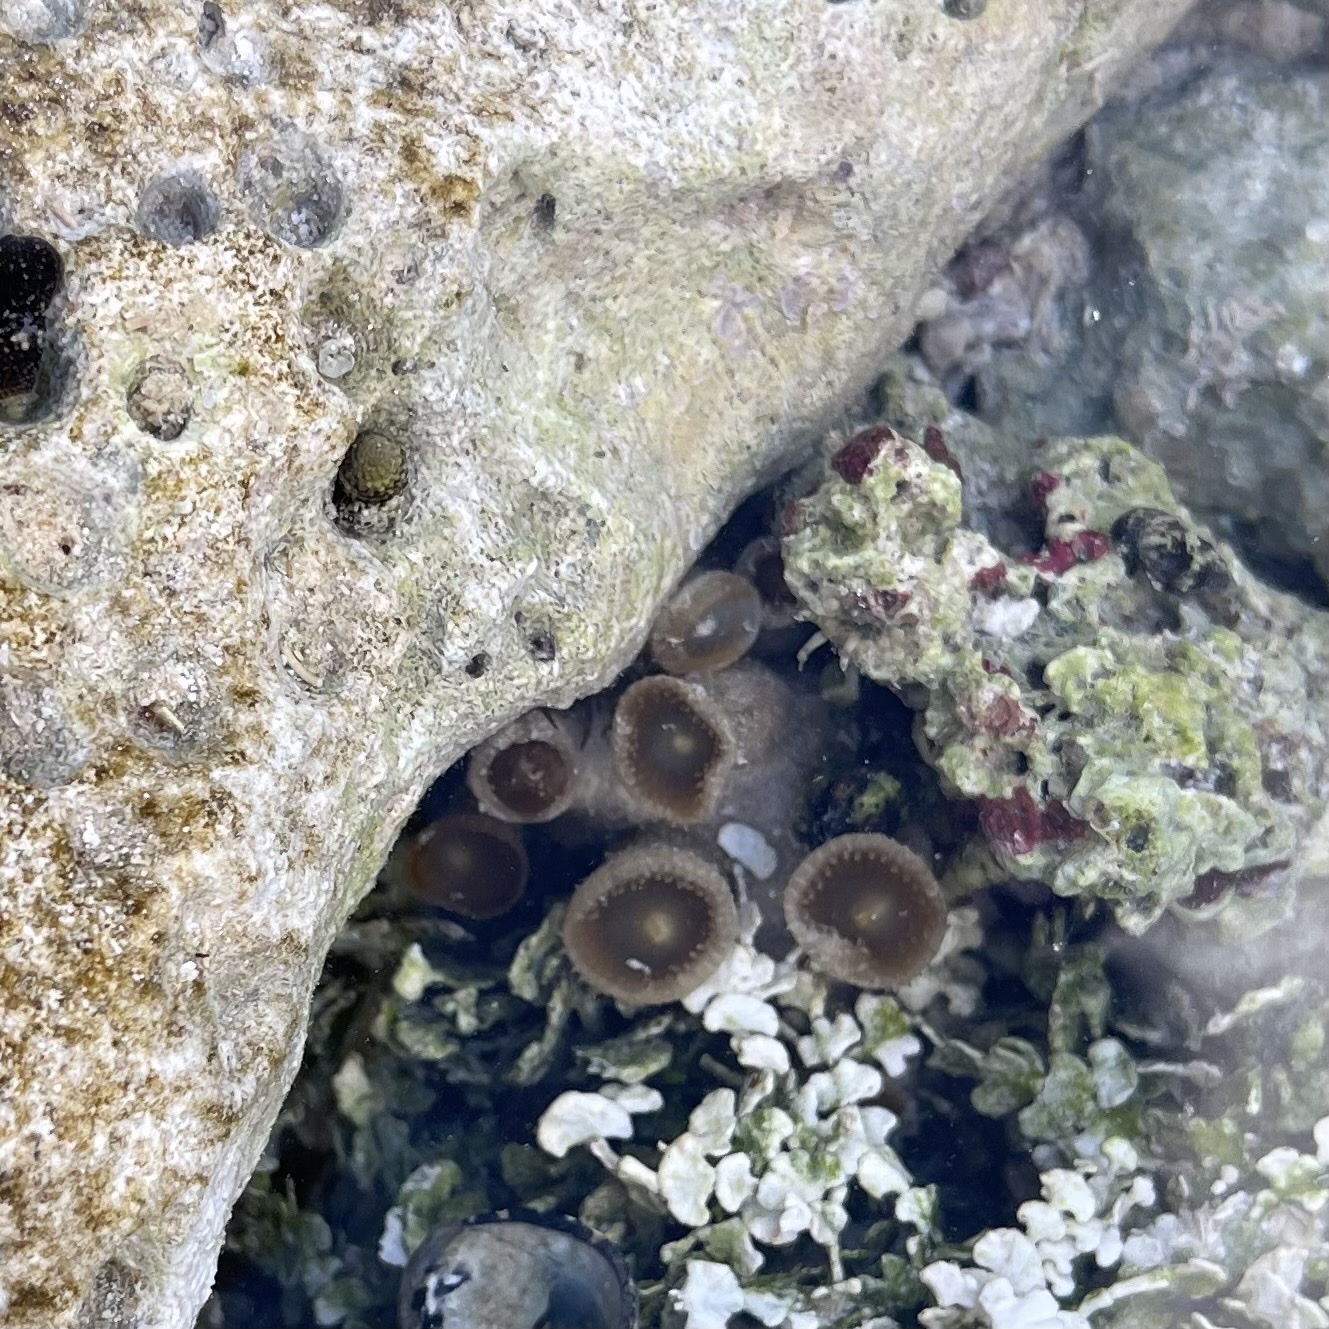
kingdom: Animalia
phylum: Cnidaria
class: Anthozoa
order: Zoantharia
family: Sphenopidae
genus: Palythoa
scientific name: Palythoa grandiflora
